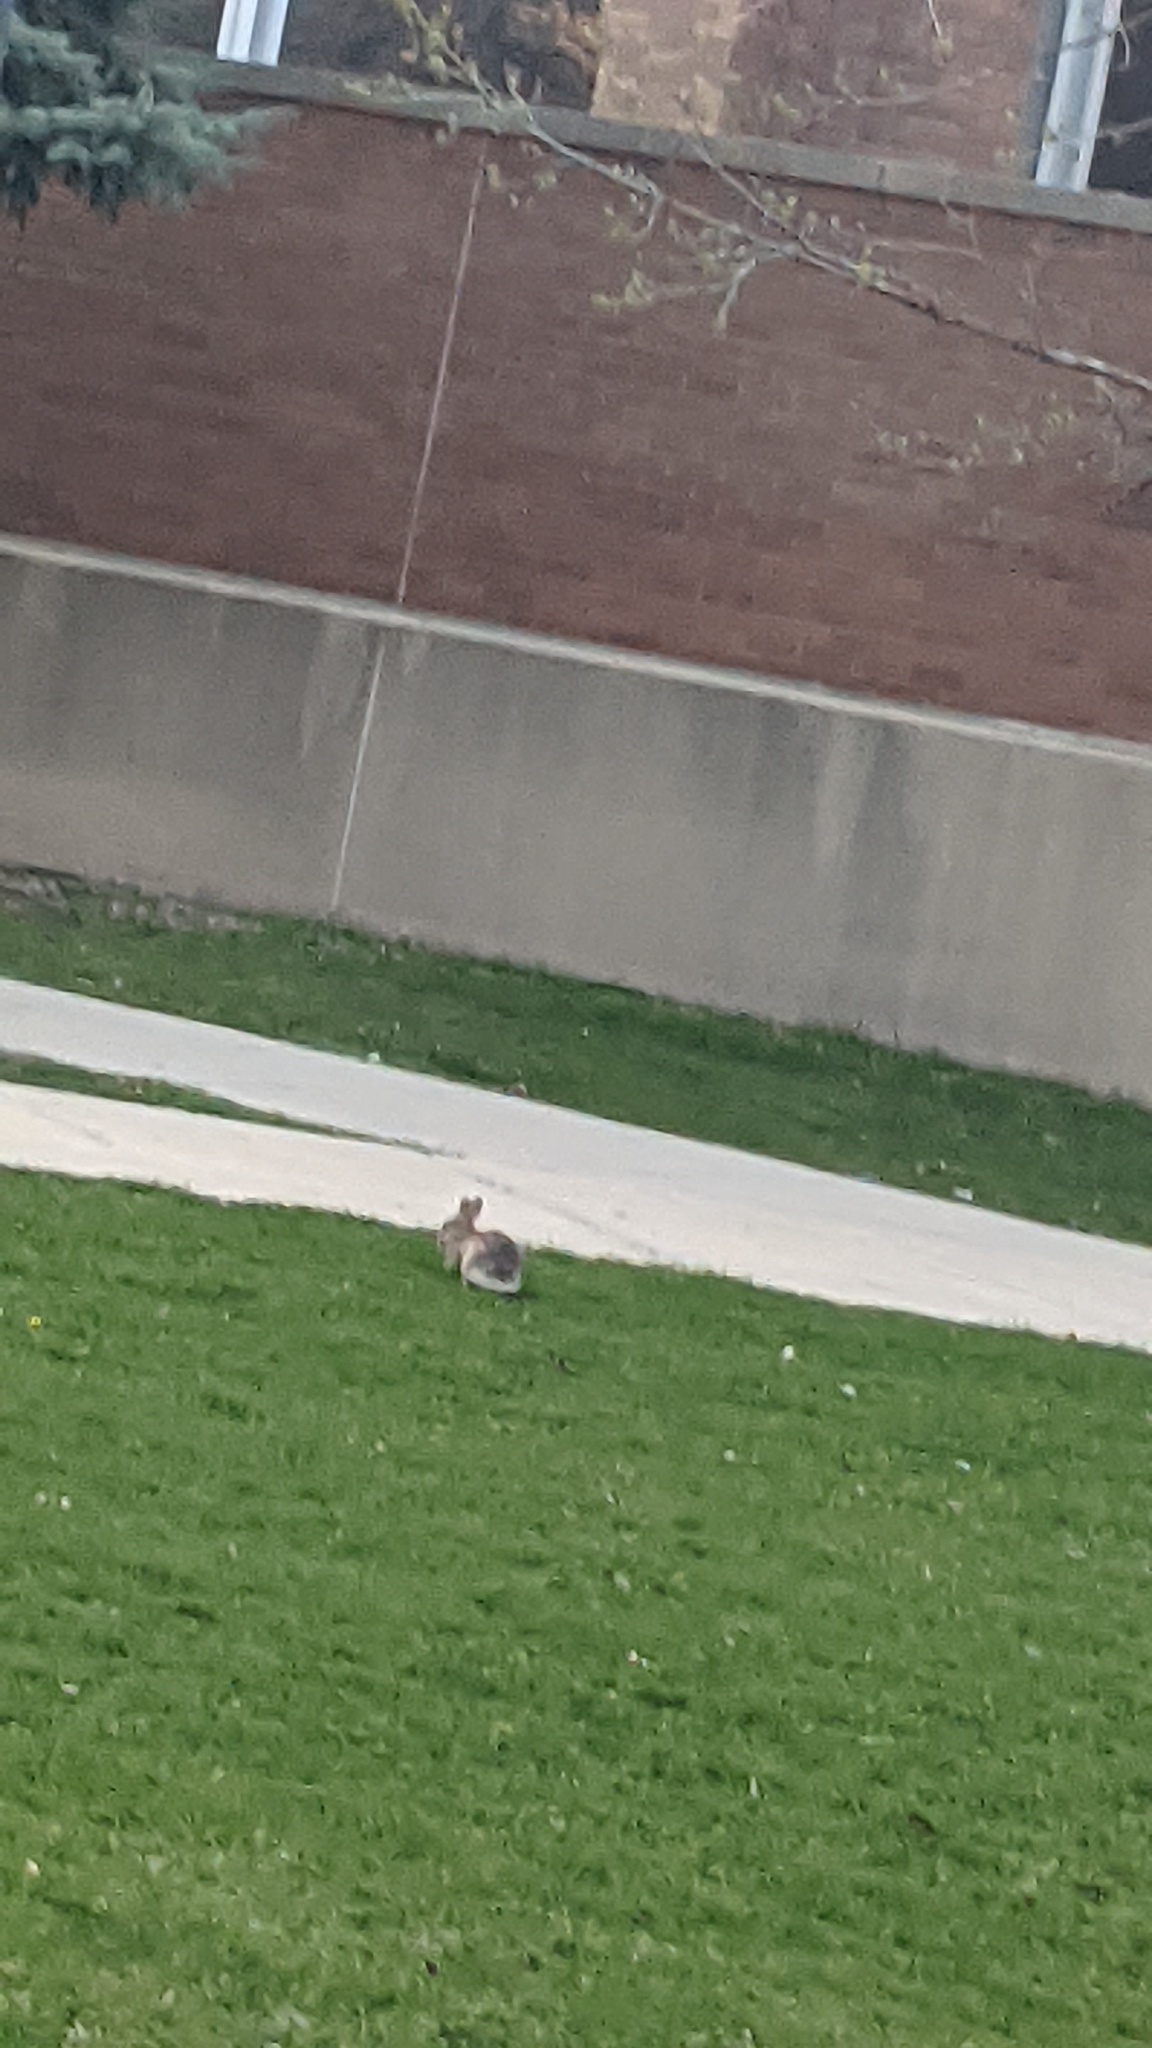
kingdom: Animalia
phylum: Chordata
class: Mammalia
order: Lagomorpha
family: Leporidae
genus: Sylvilagus
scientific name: Sylvilagus floridanus
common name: Eastern cottontail
